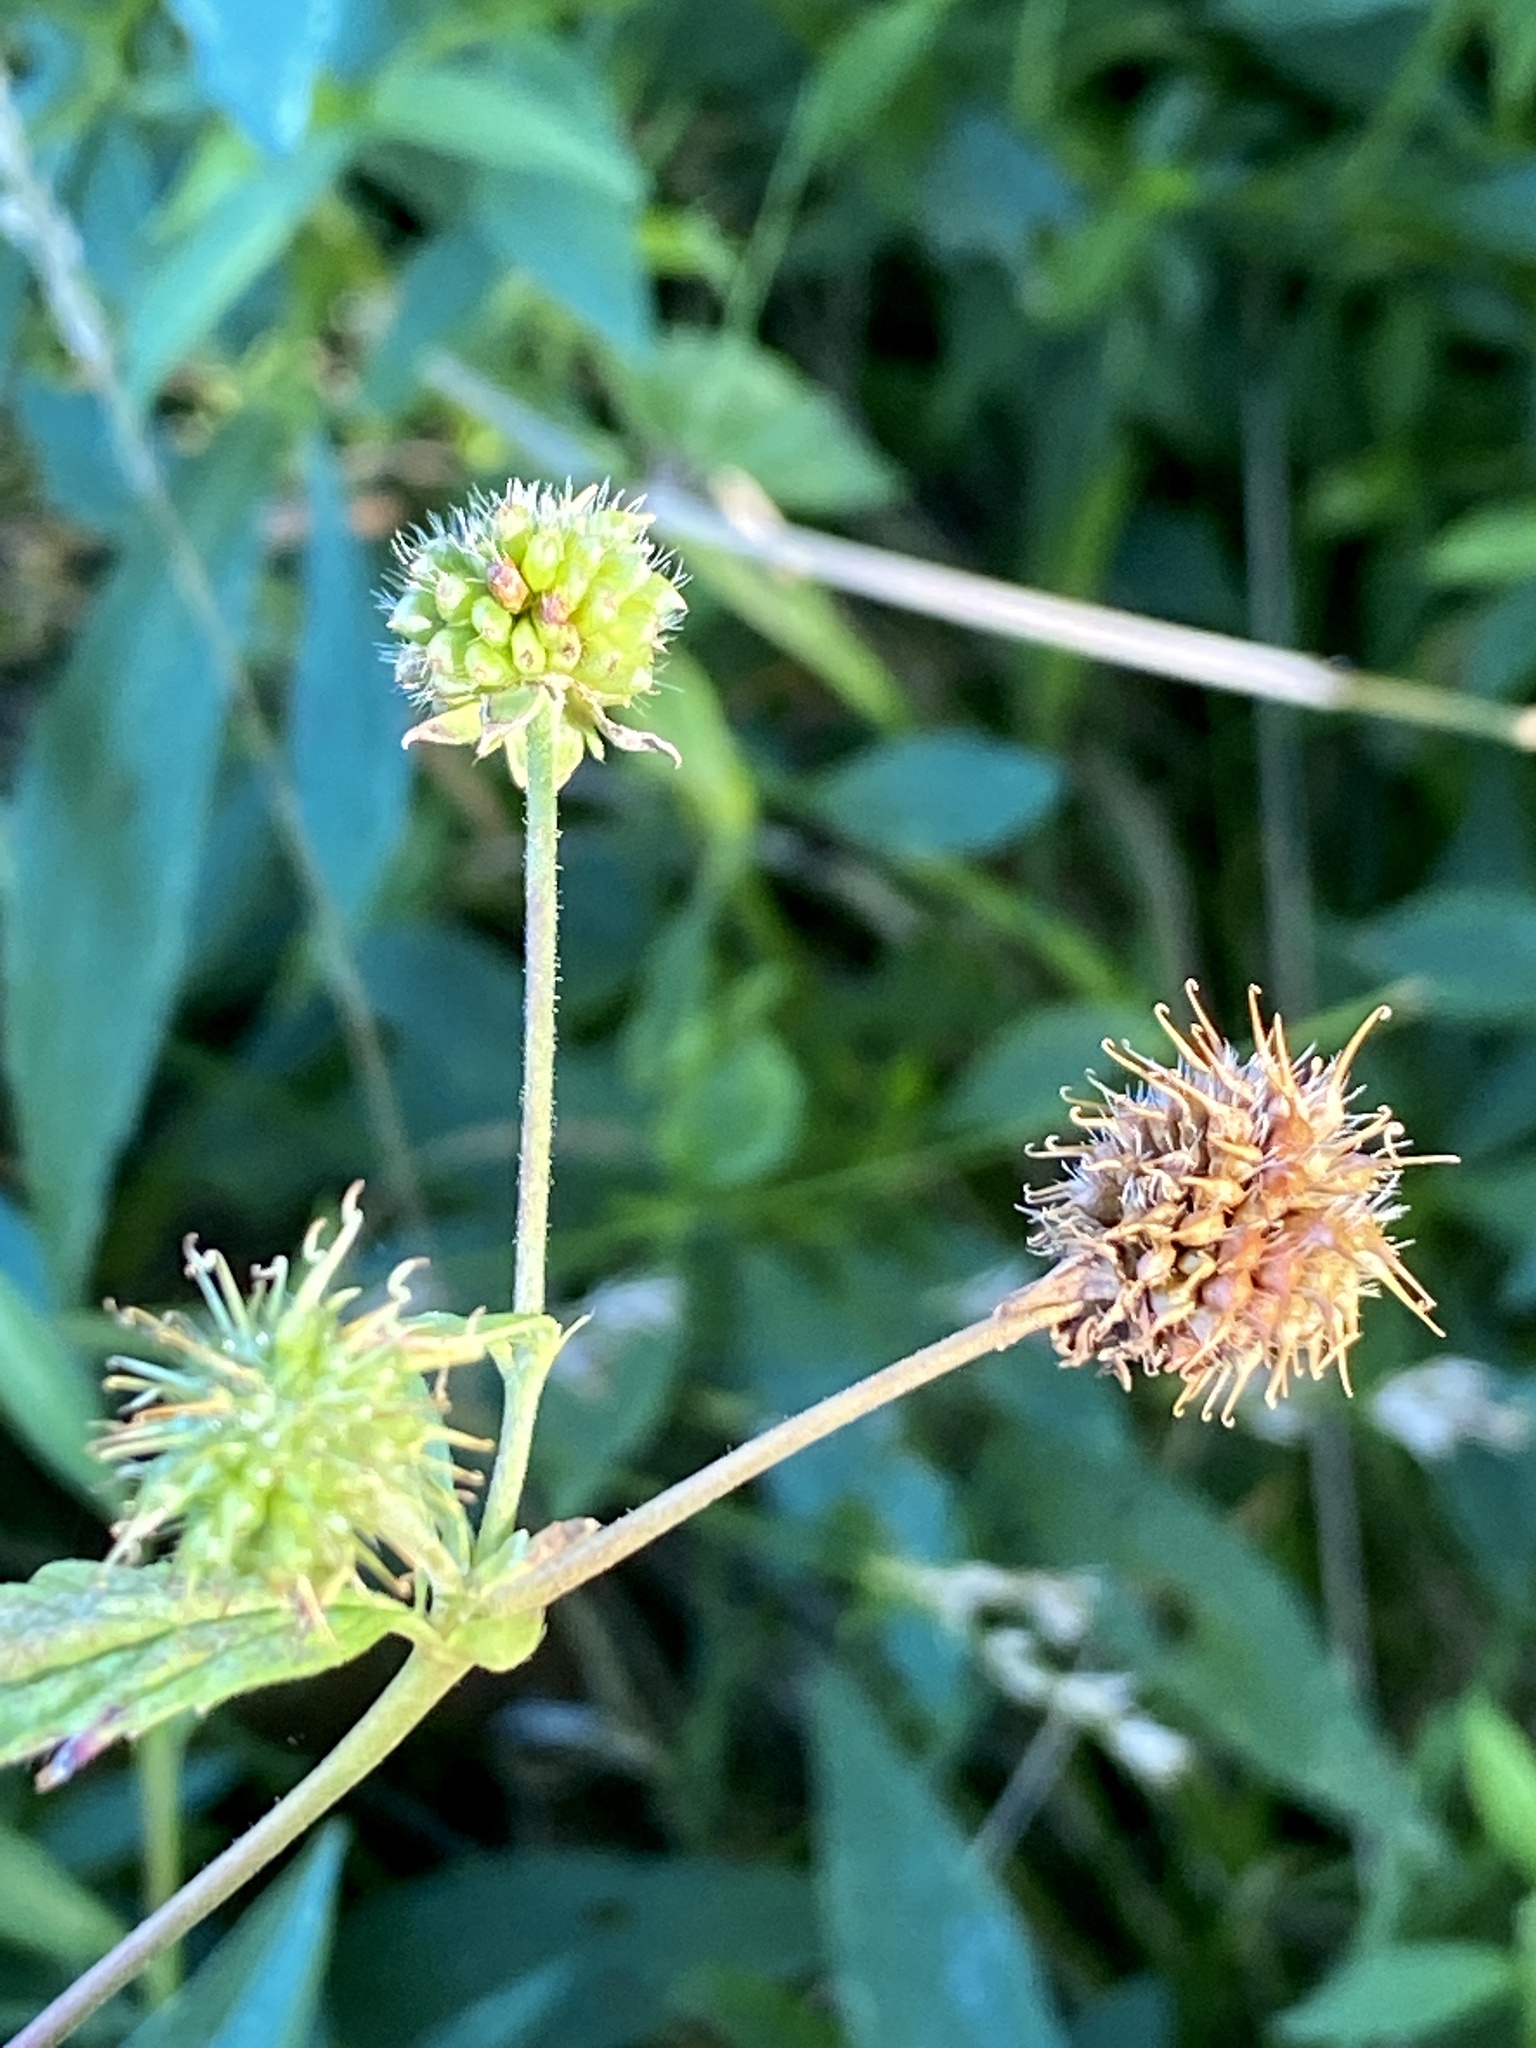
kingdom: Plantae
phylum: Tracheophyta
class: Magnoliopsida
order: Rosales
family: Rosaceae
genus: Geum
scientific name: Geum canadense
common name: White avens
